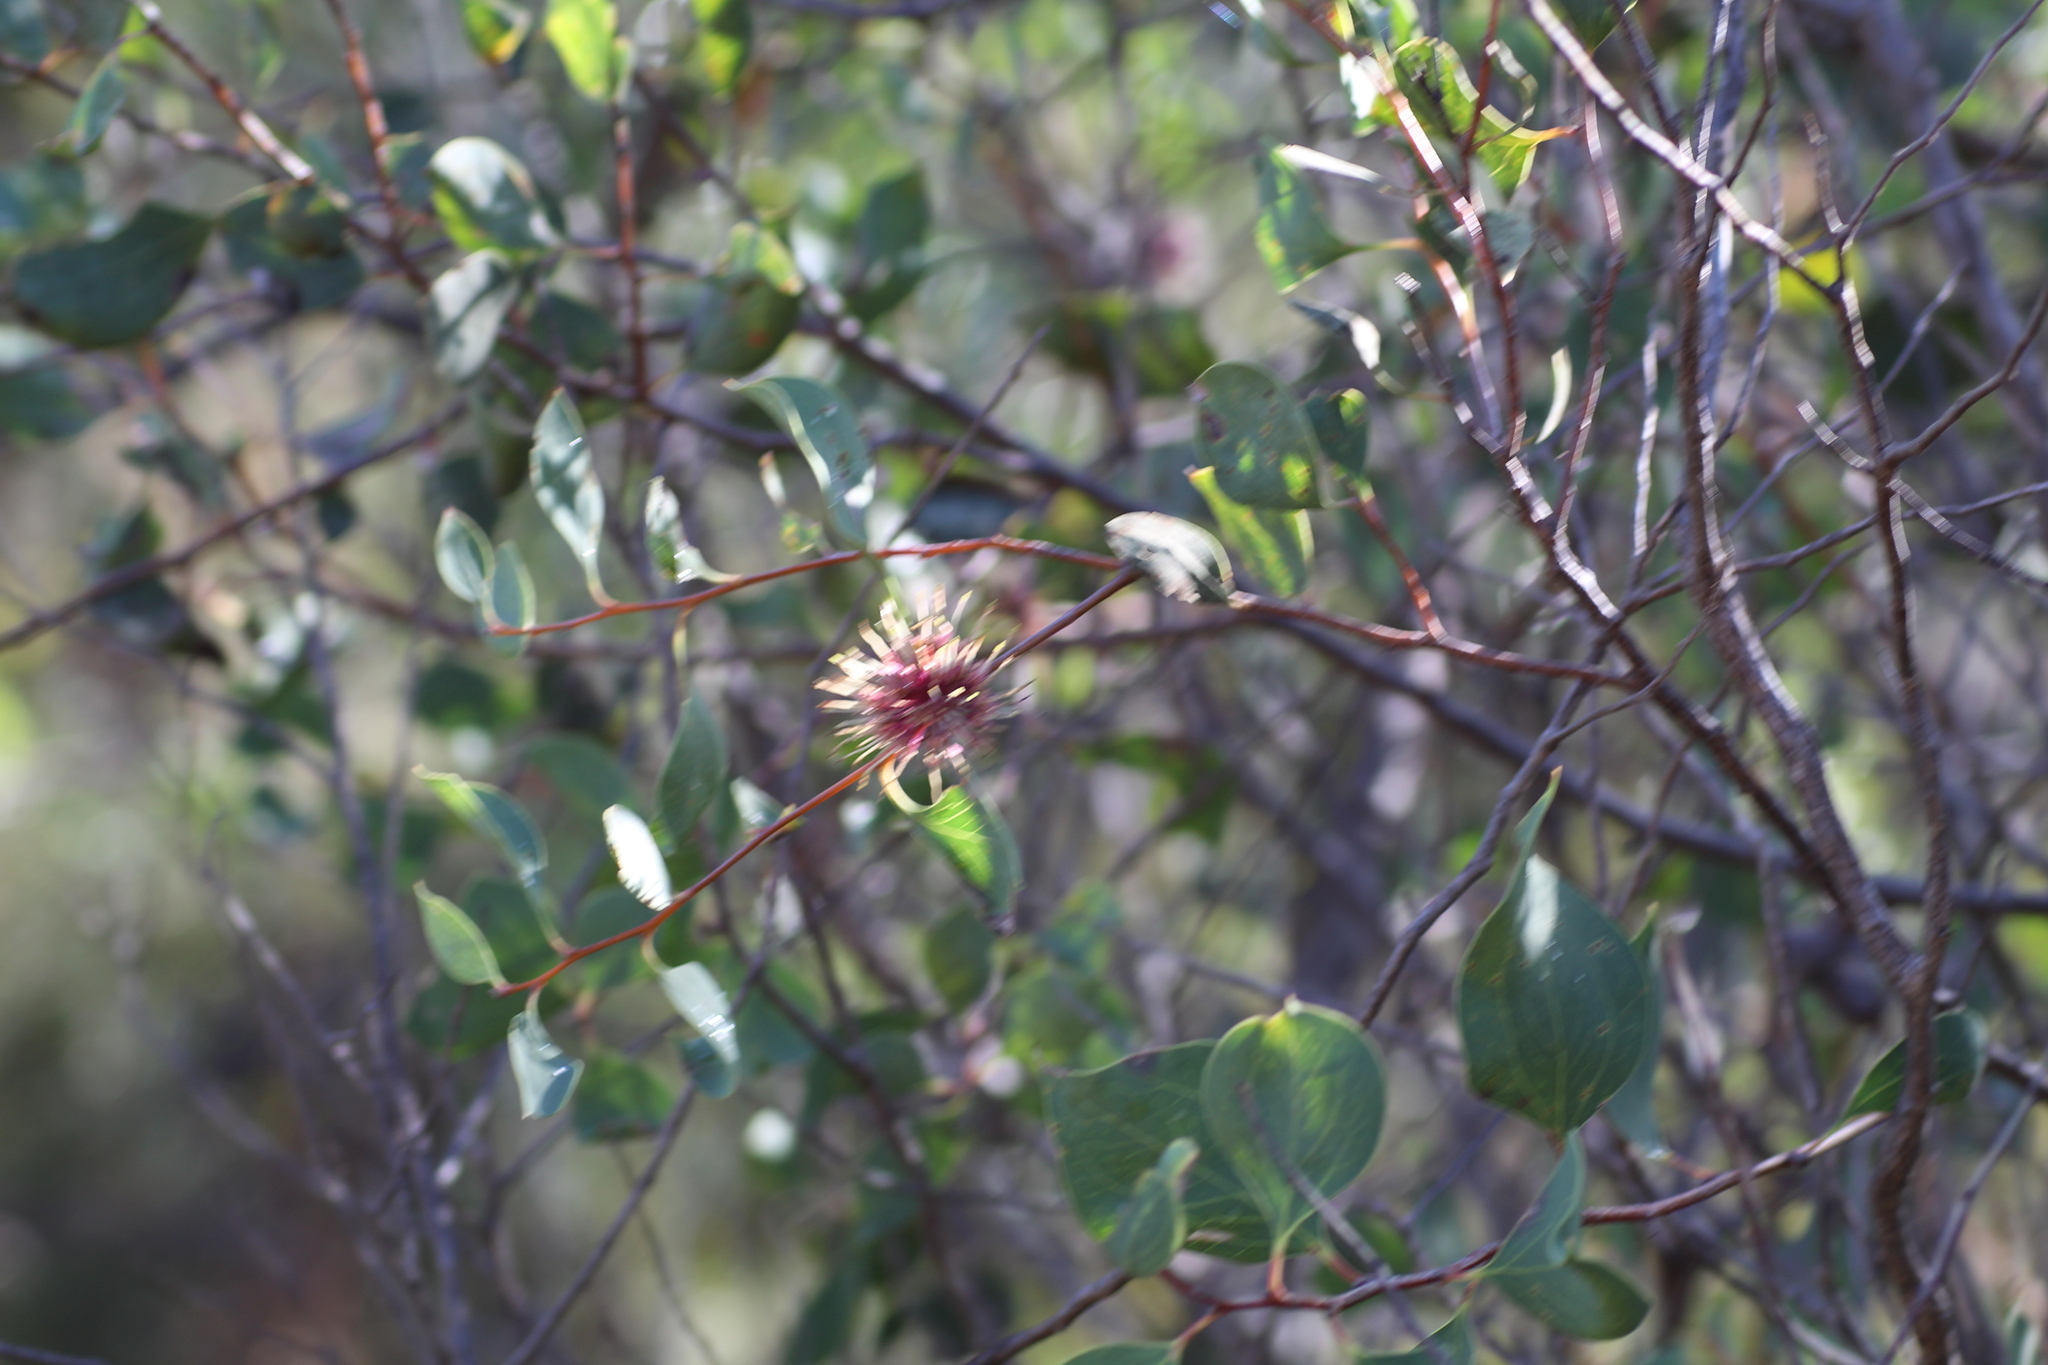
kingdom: Plantae
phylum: Tracheophyta
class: Magnoliopsida
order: Proteales
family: Proteaceae
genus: Hakea
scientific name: Hakea petiolaris
